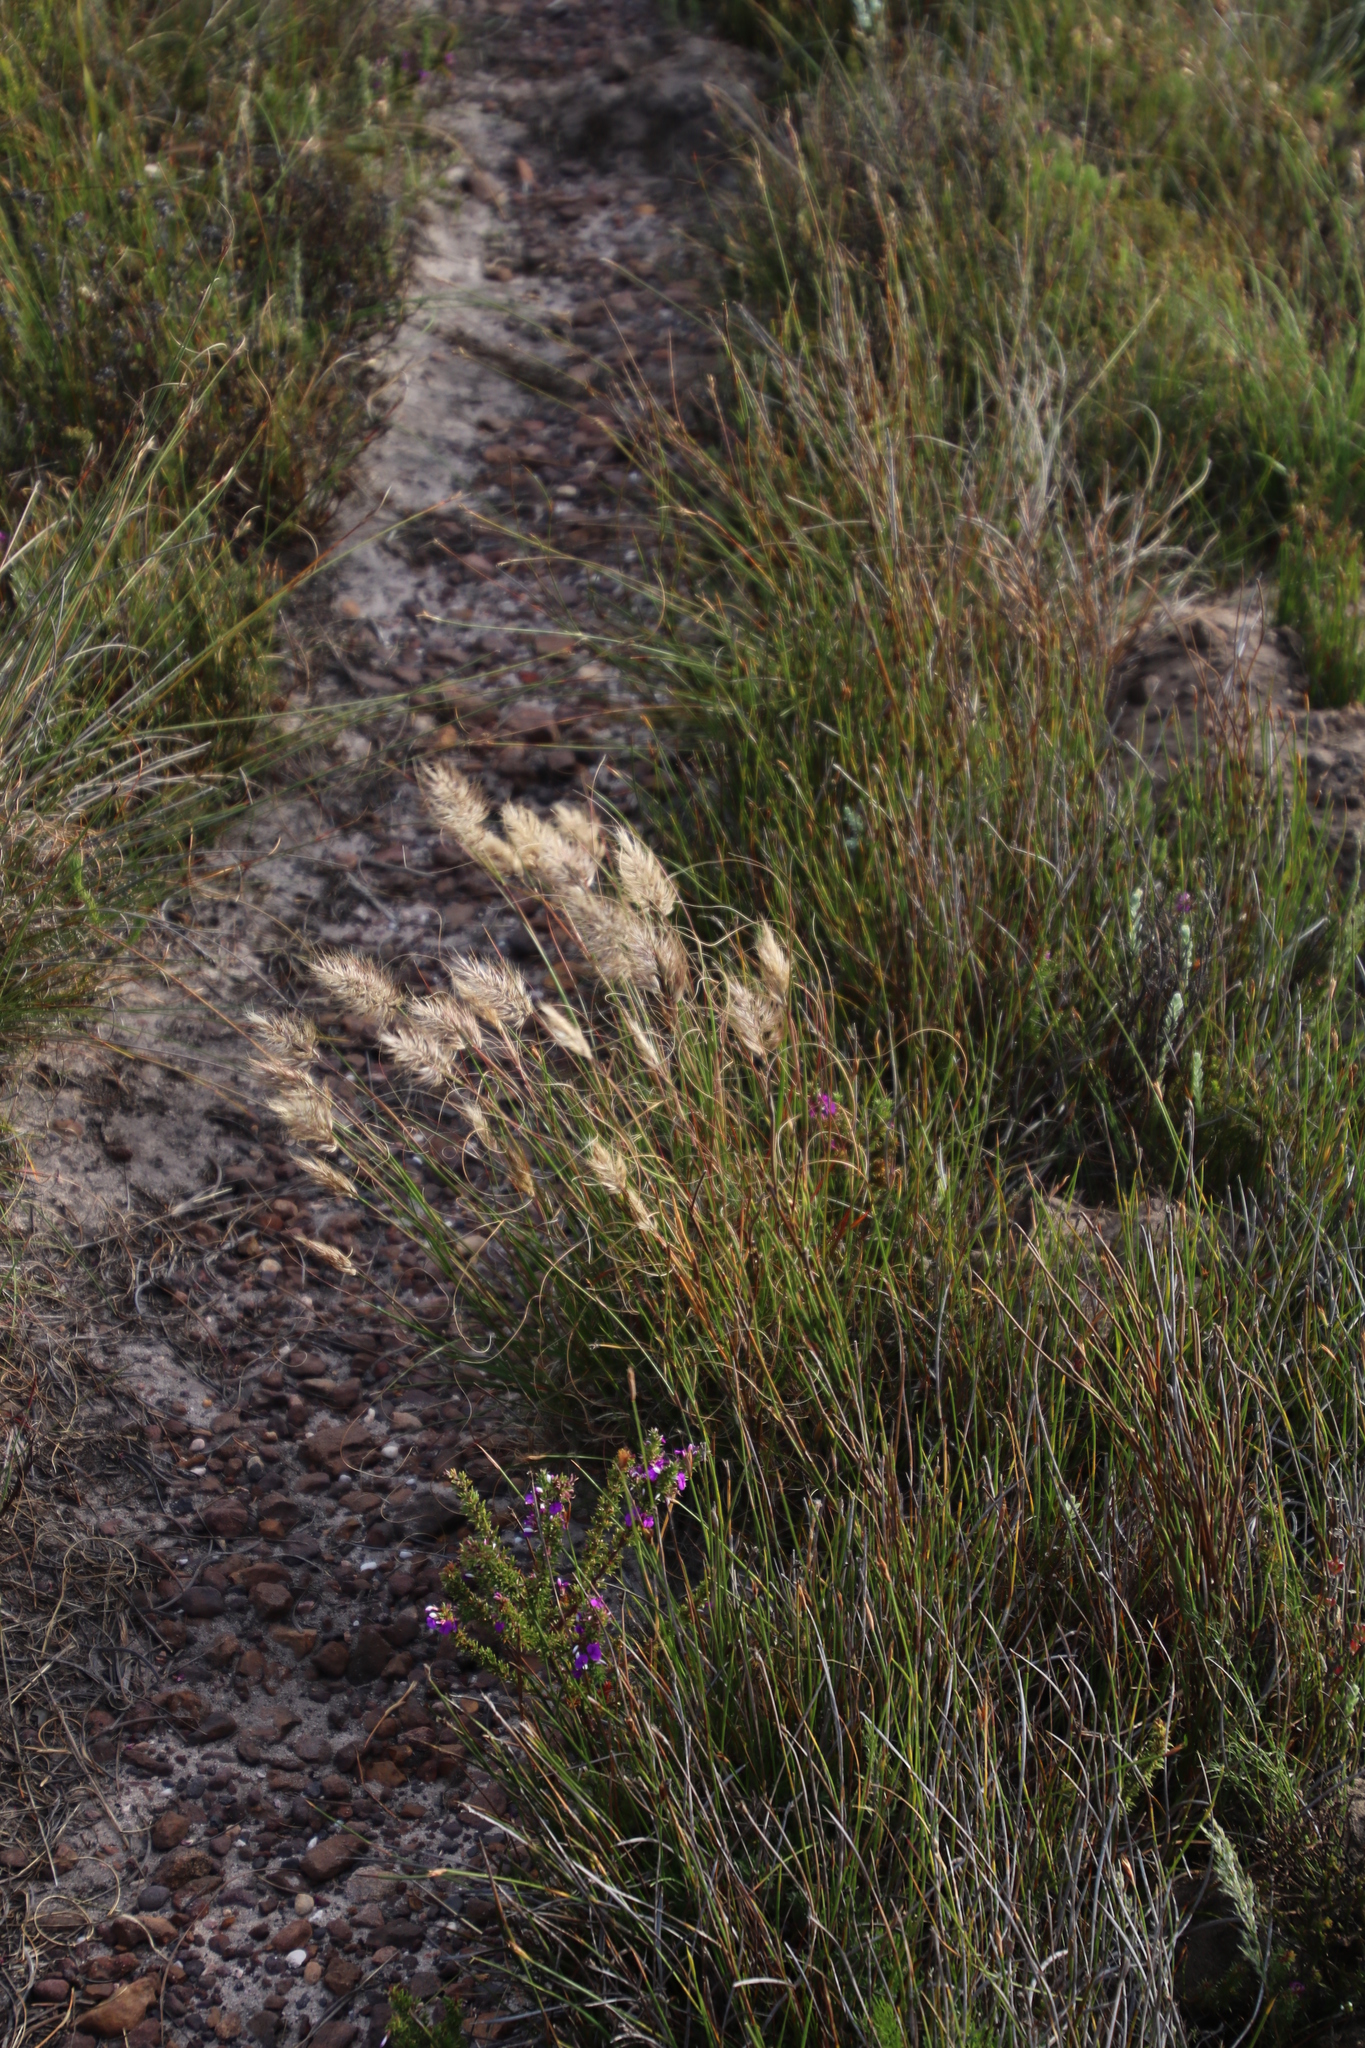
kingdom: Plantae
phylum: Tracheophyta
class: Liliopsida
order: Poales
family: Poaceae
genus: Pentameris
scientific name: Pentameris curvifolia
